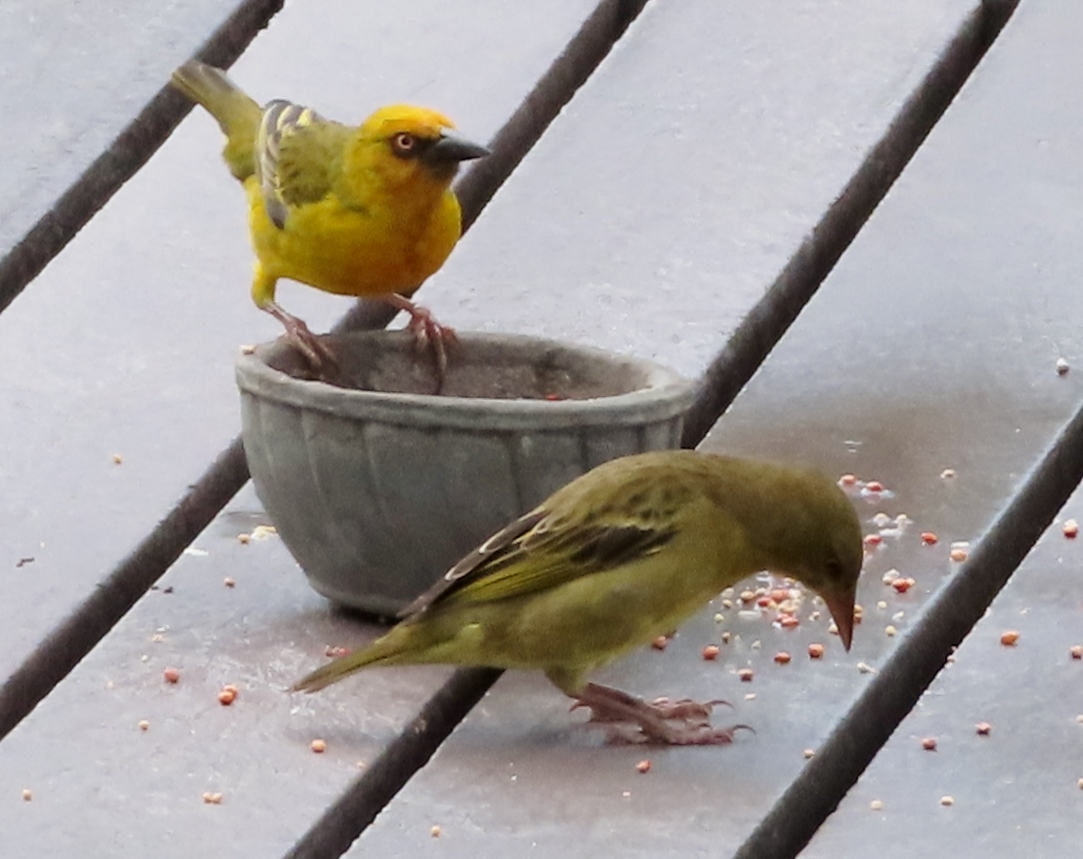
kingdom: Animalia
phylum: Chordata
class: Aves
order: Passeriformes
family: Ploceidae
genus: Ploceus
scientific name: Ploceus capensis
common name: Cape weaver
